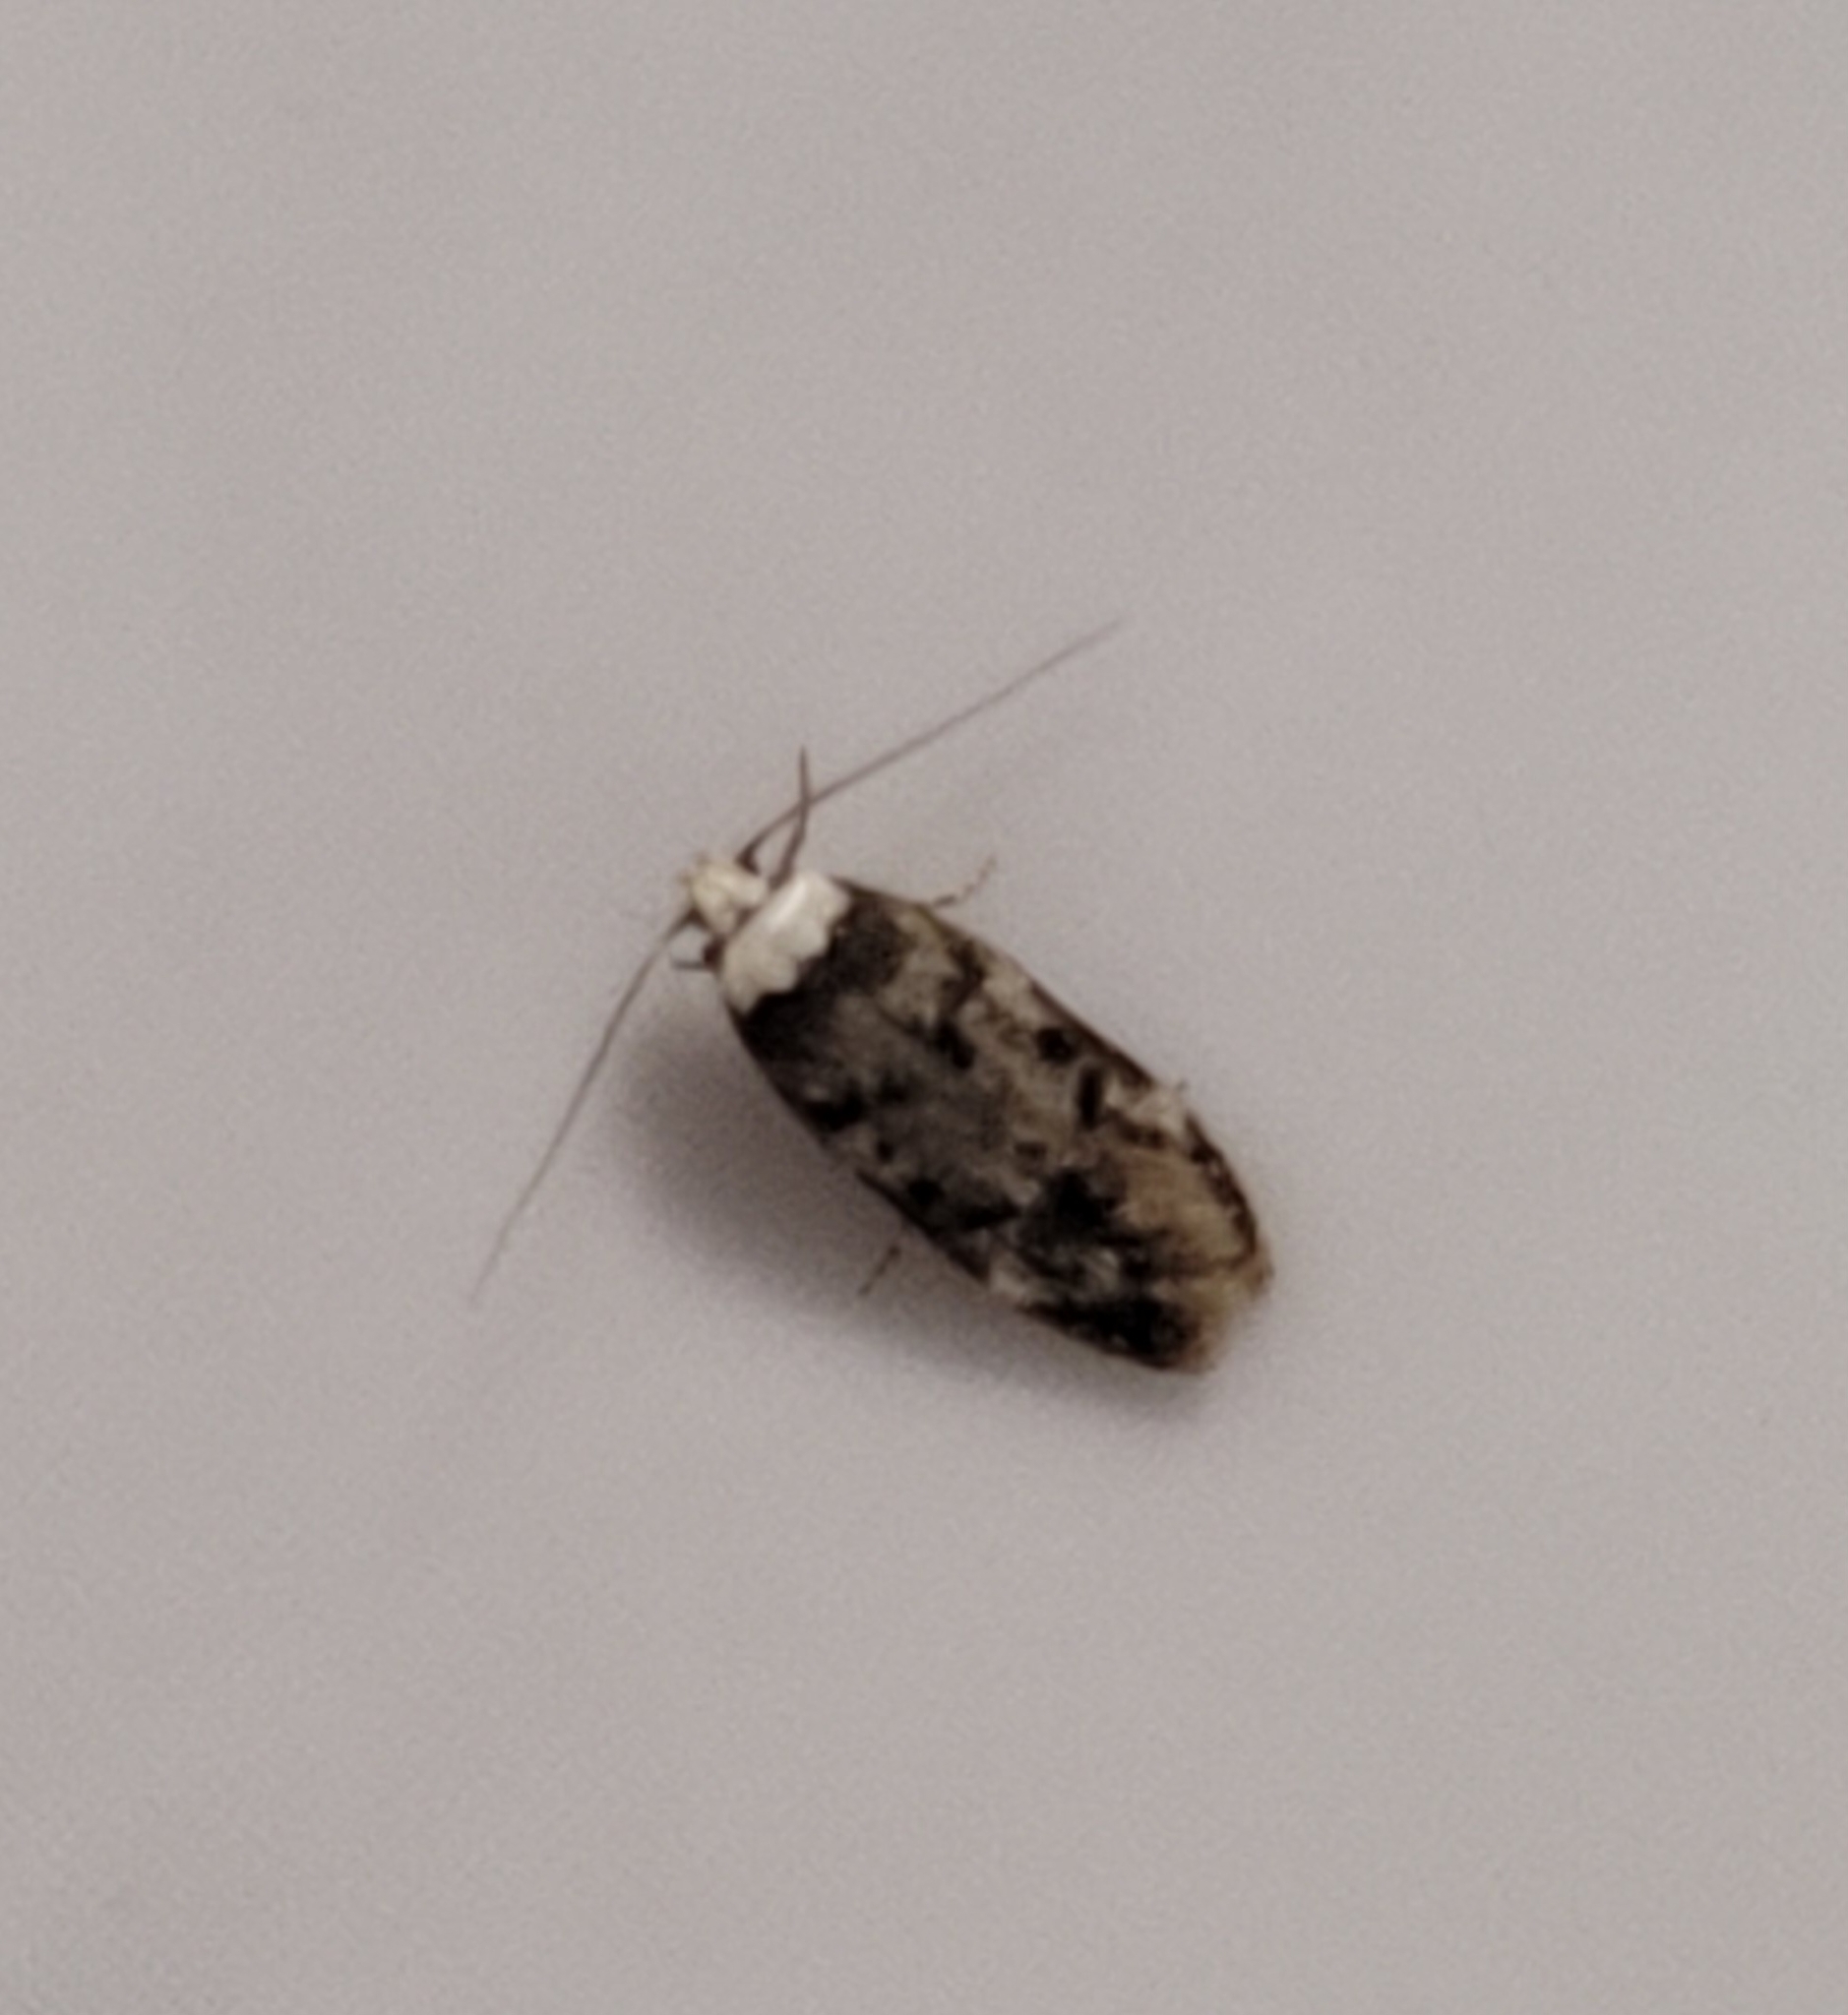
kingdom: Animalia
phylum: Arthropoda
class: Insecta
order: Lepidoptera
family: Oecophoridae
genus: Endrosis
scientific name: Endrosis sarcitrella
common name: White-shouldered house moth
